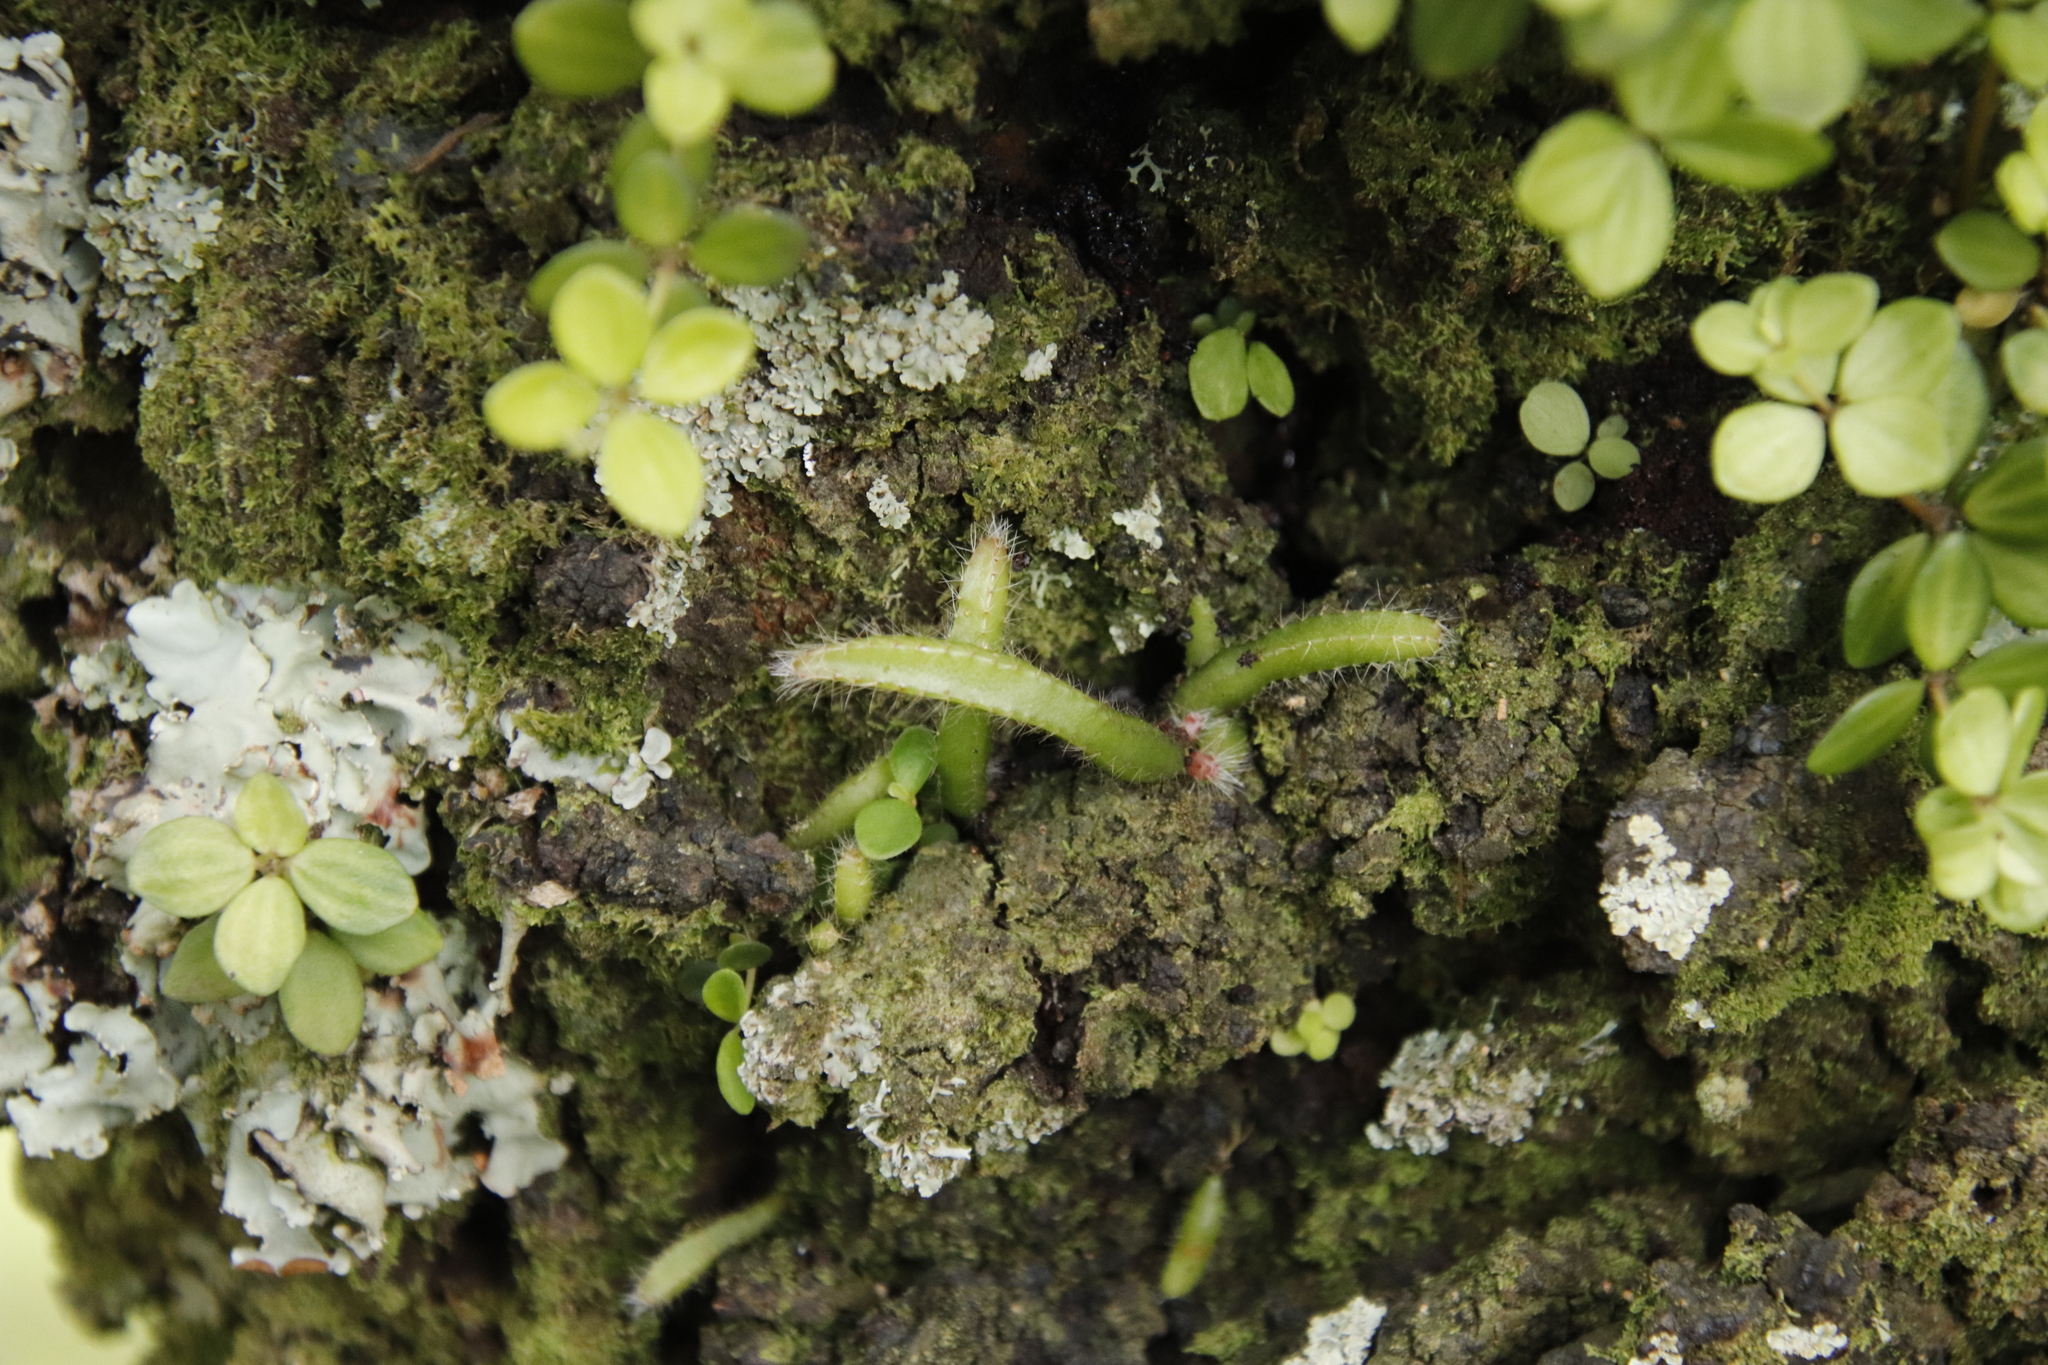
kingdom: Plantae
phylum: Tracheophyta
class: Magnoliopsida
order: Caryophyllales
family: Cactaceae
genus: Rhipsalis
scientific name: Rhipsalis baccifera
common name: Mistletoe cactus
